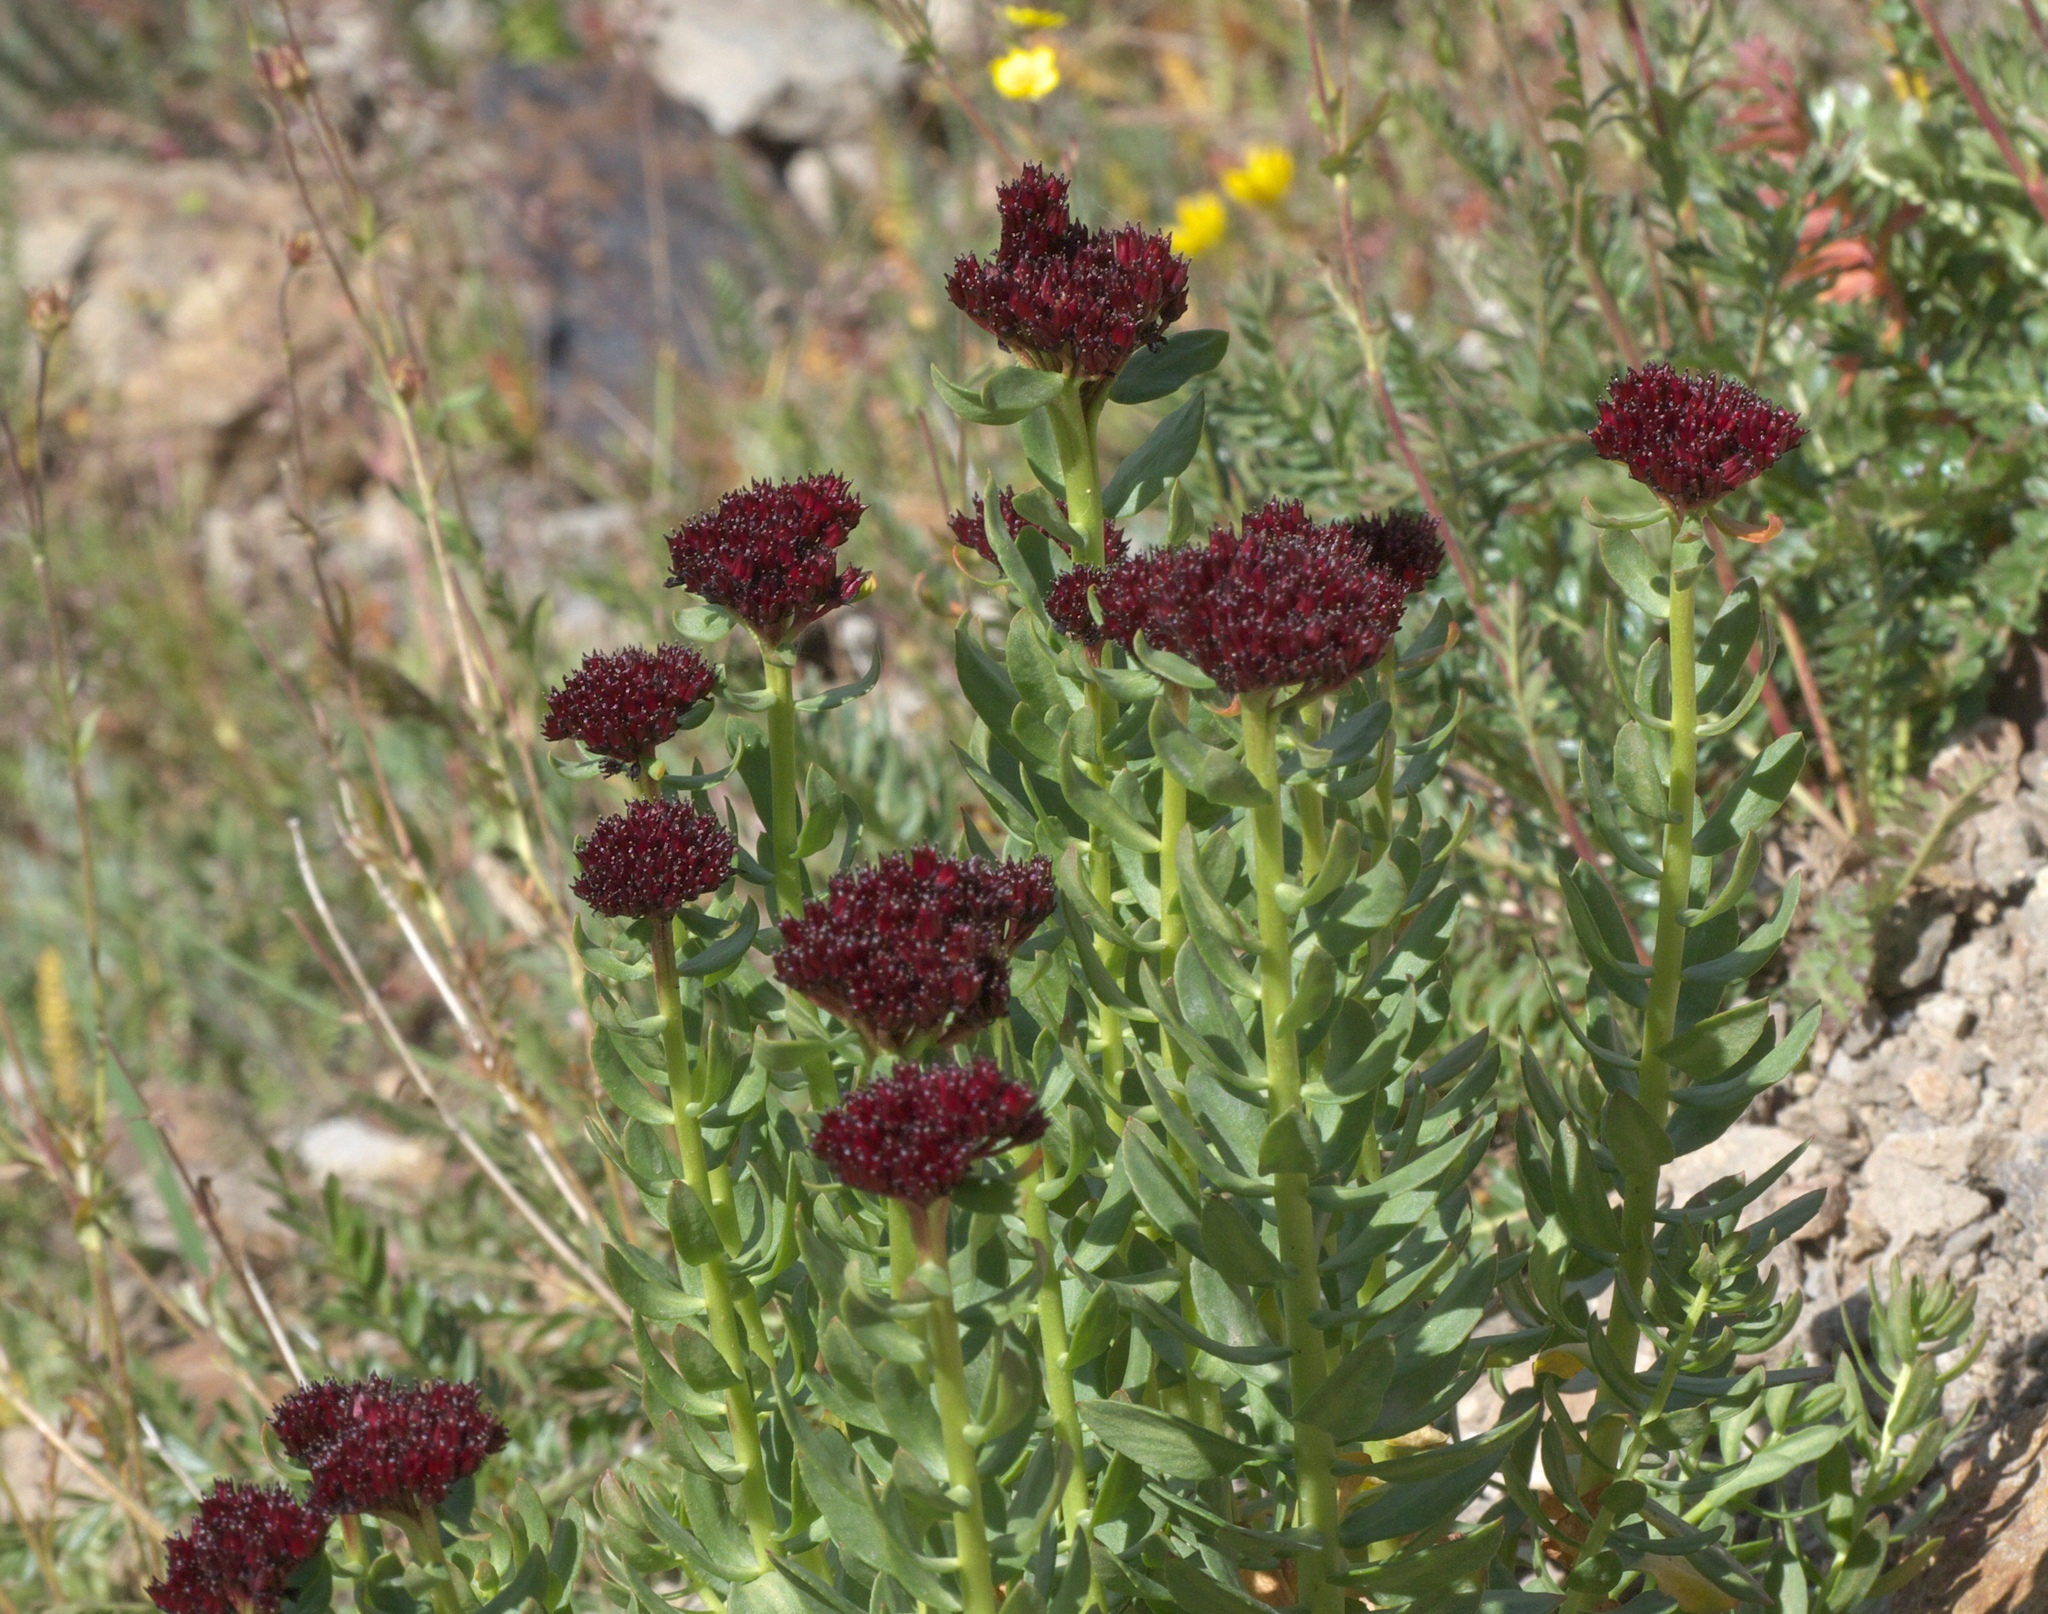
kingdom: Plantae
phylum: Tracheophyta
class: Magnoliopsida
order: Saxifragales
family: Crassulaceae
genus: Rhodiola
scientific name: Rhodiola integrifolia
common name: Western roseroot
